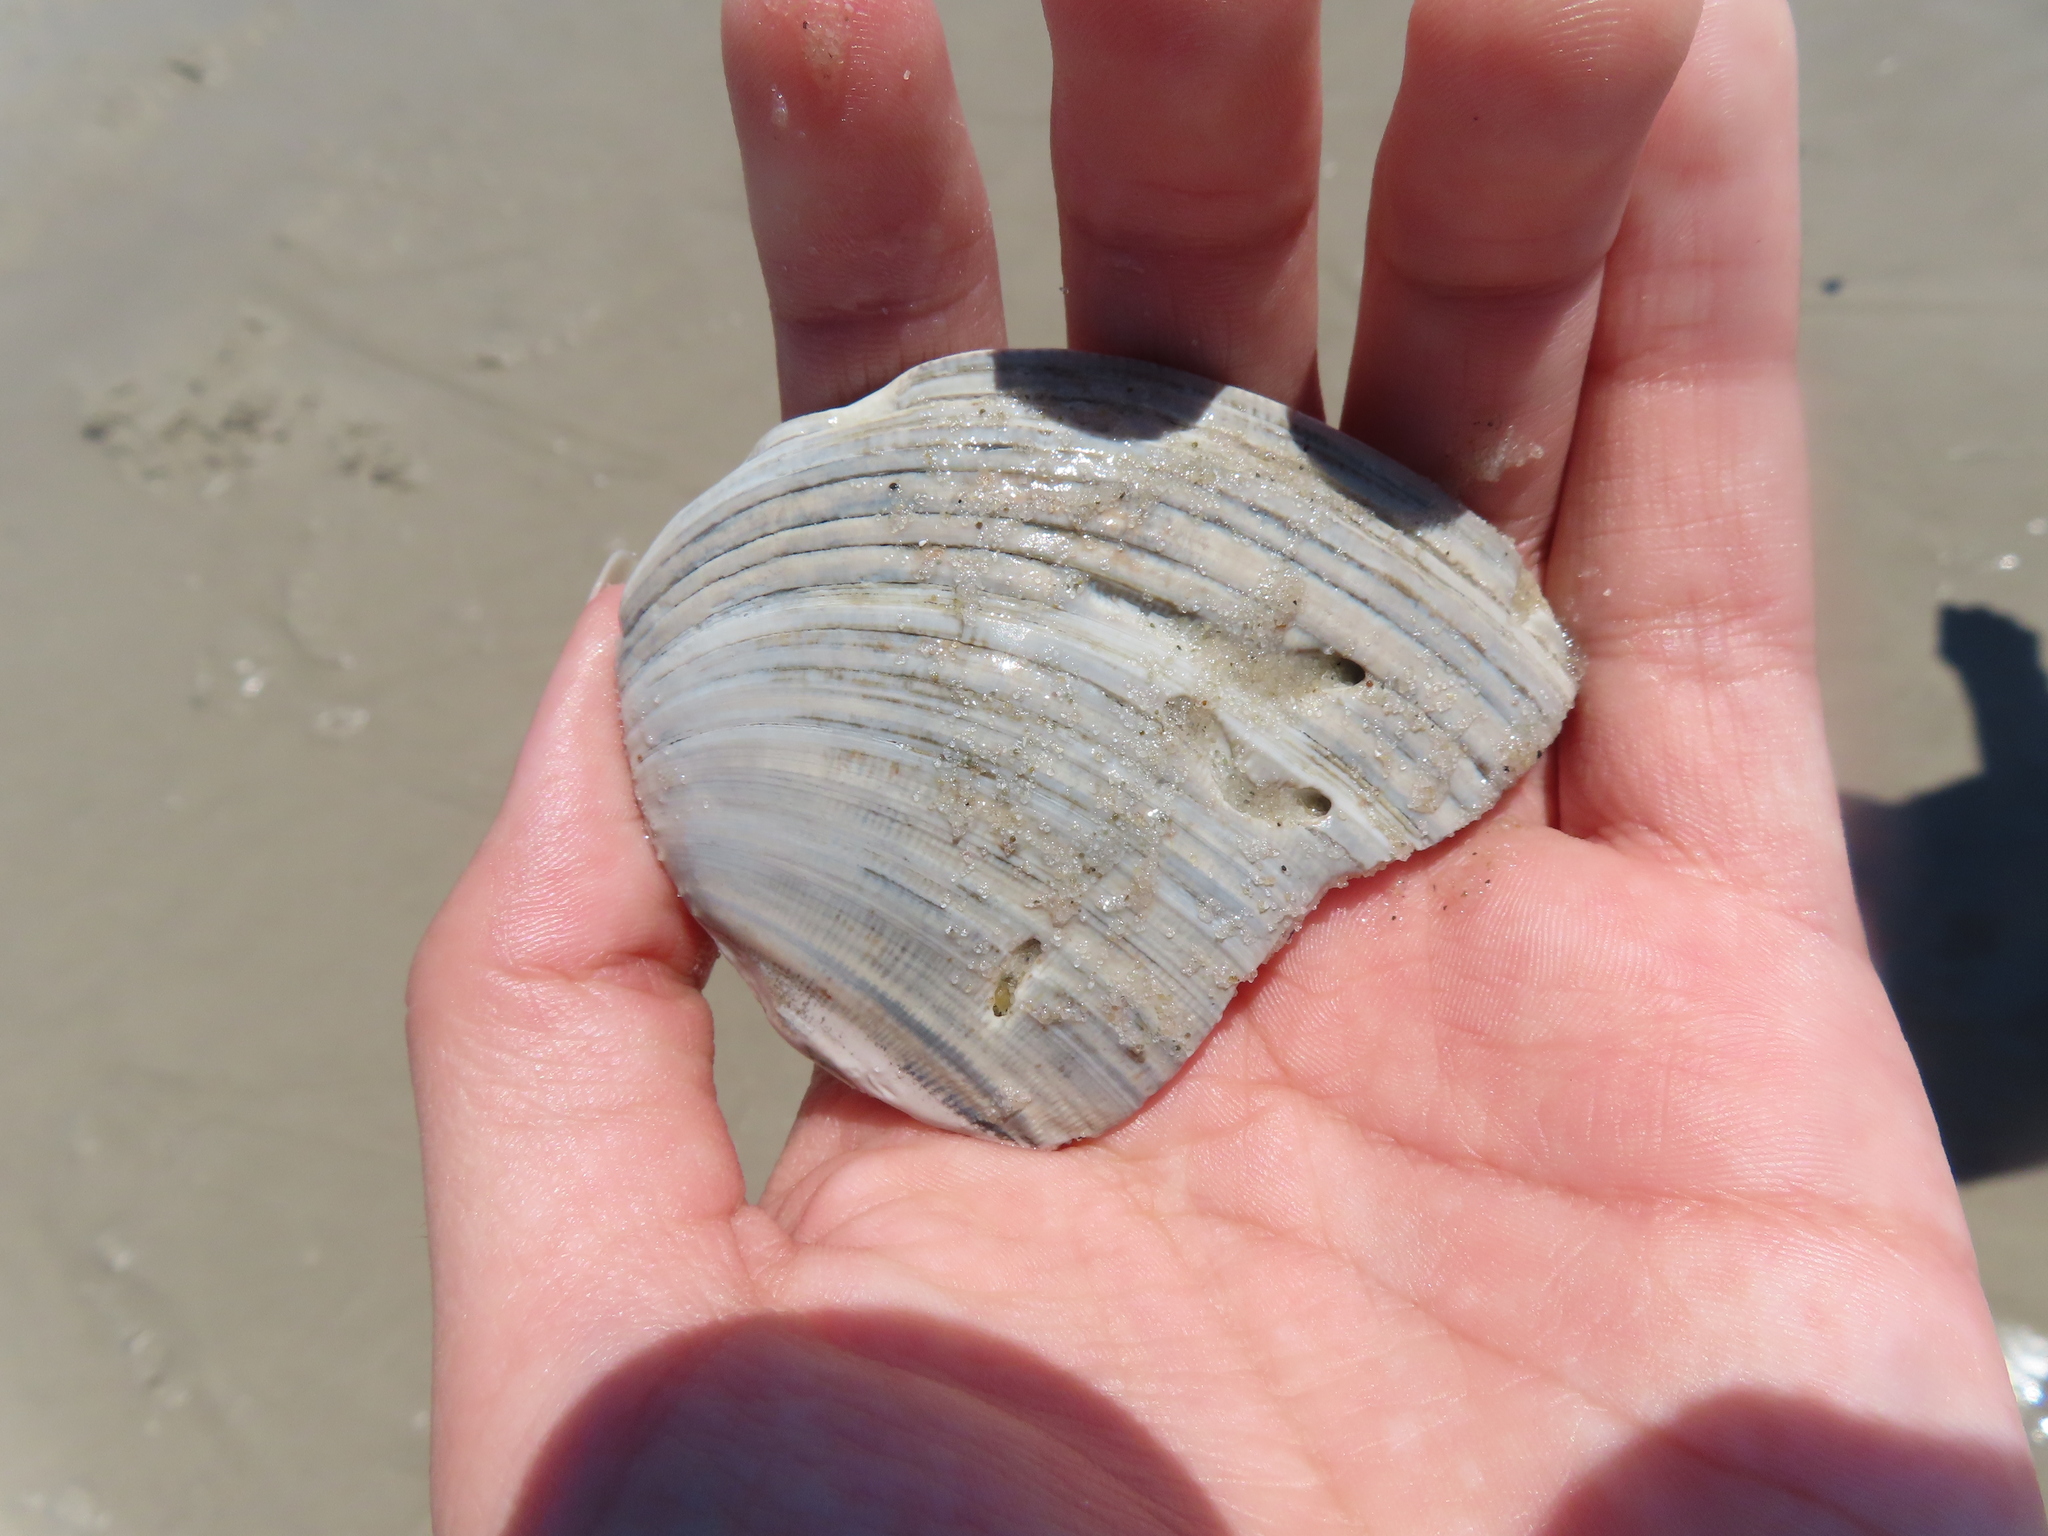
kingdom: Animalia
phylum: Mollusca
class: Bivalvia
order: Venerida
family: Veneridae
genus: Mercenaria
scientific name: Mercenaria mercenaria
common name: American hard-shelled clam
